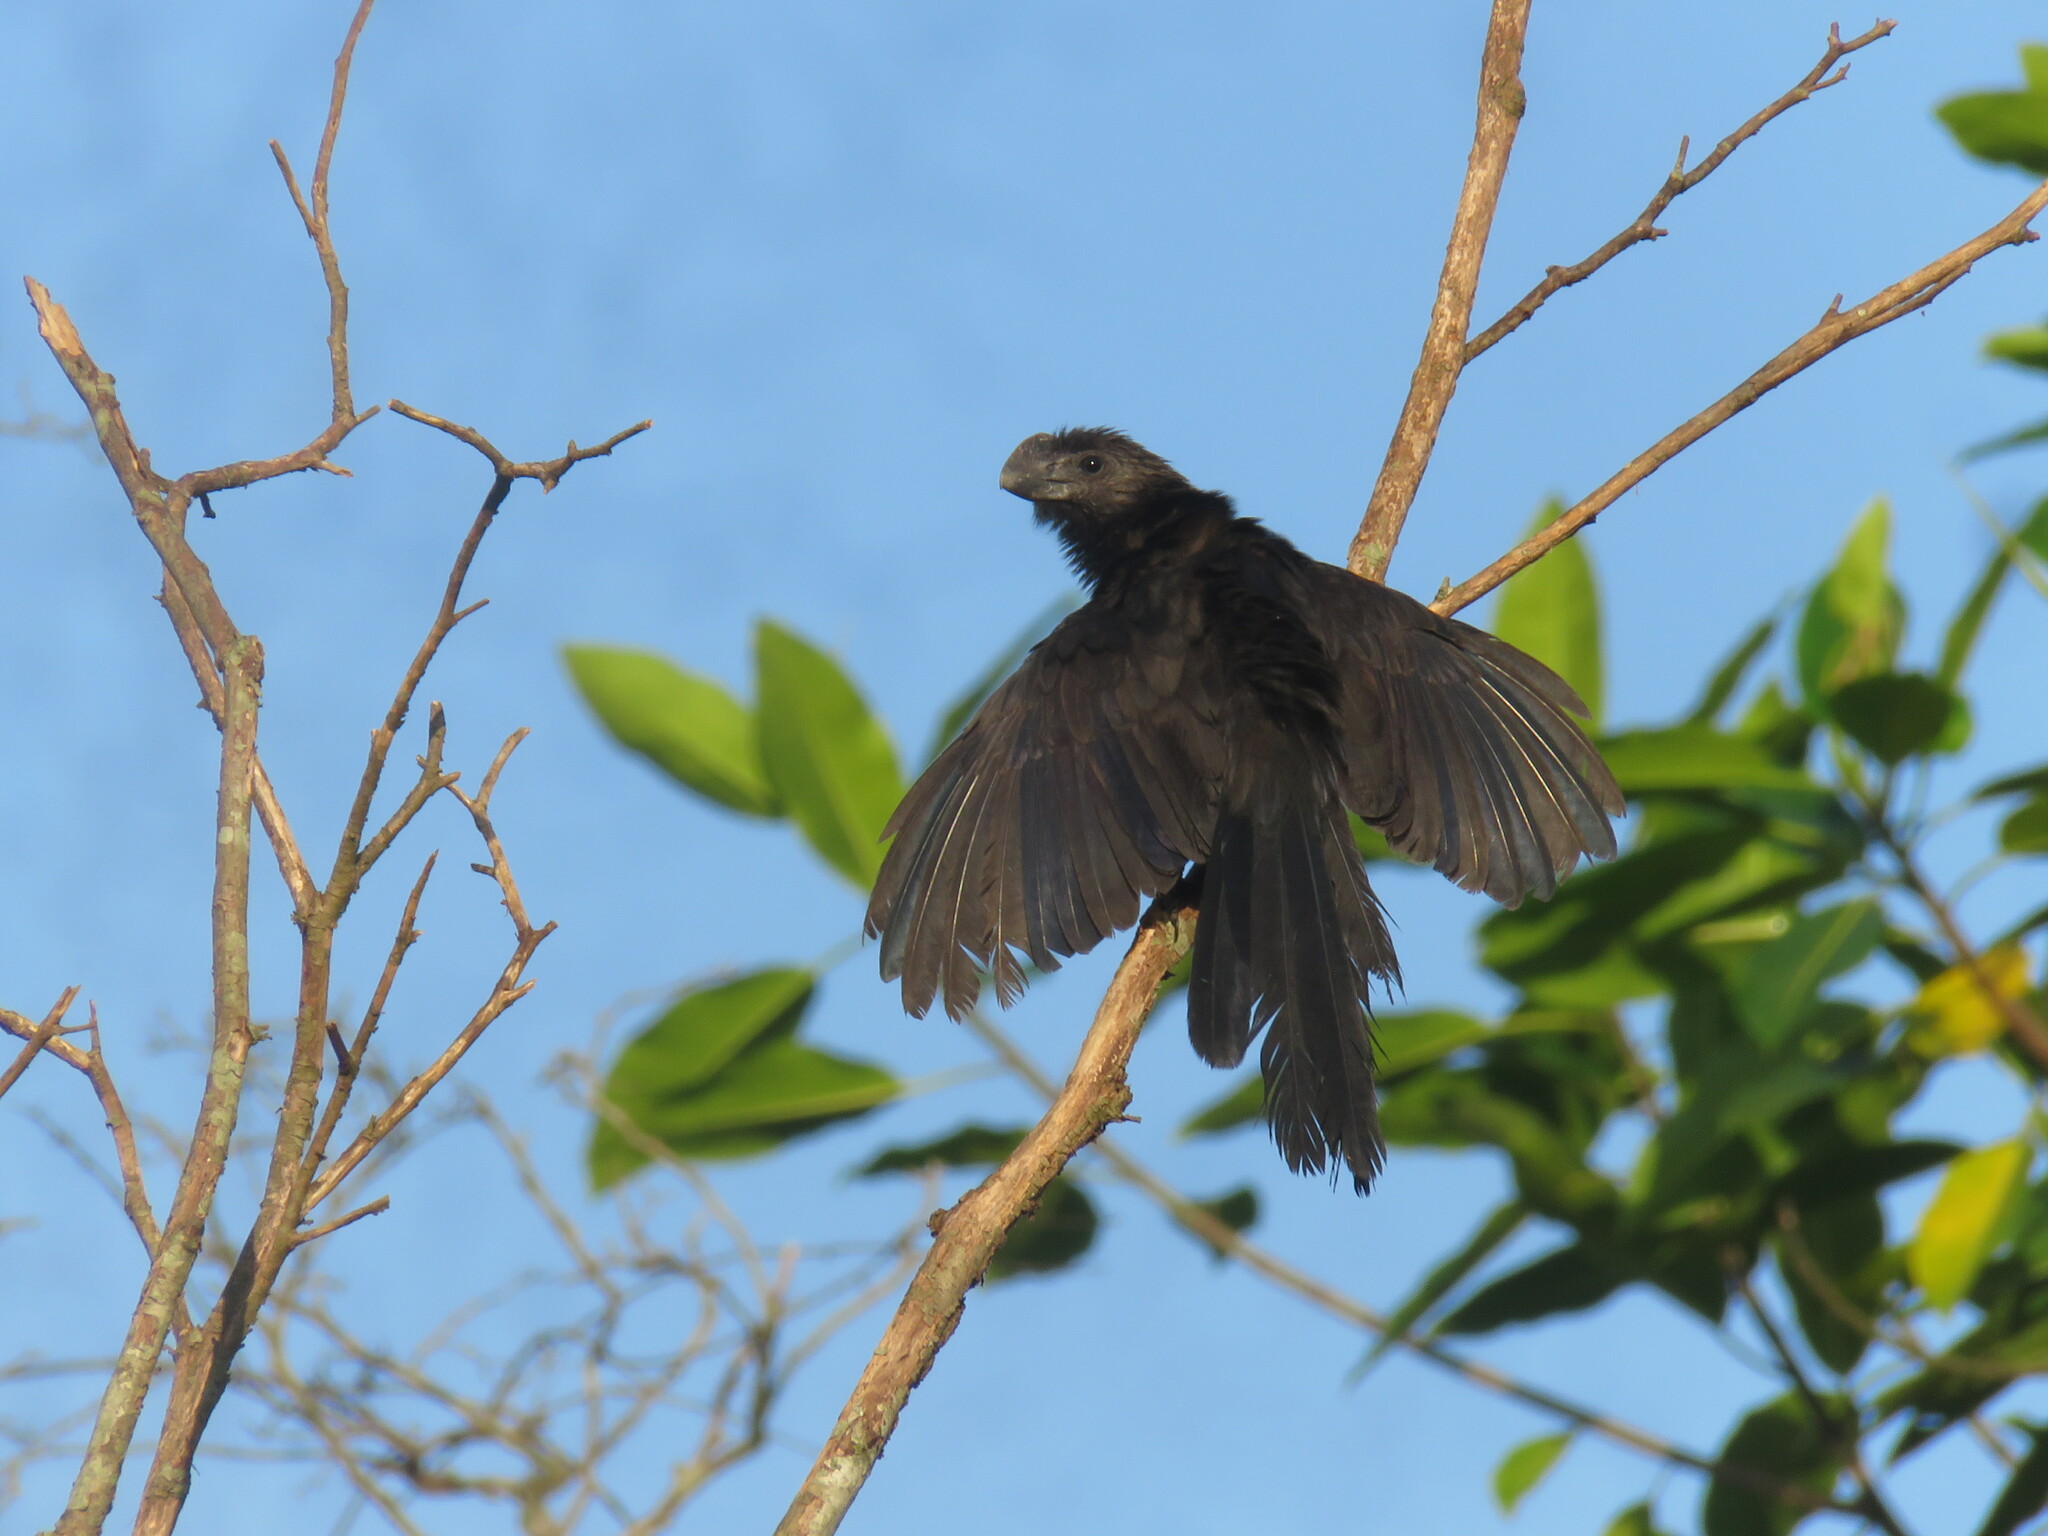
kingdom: Animalia
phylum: Chordata
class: Aves
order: Cuculiformes
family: Cuculidae
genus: Crotophaga
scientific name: Crotophaga ani
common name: Smooth-billed ani
